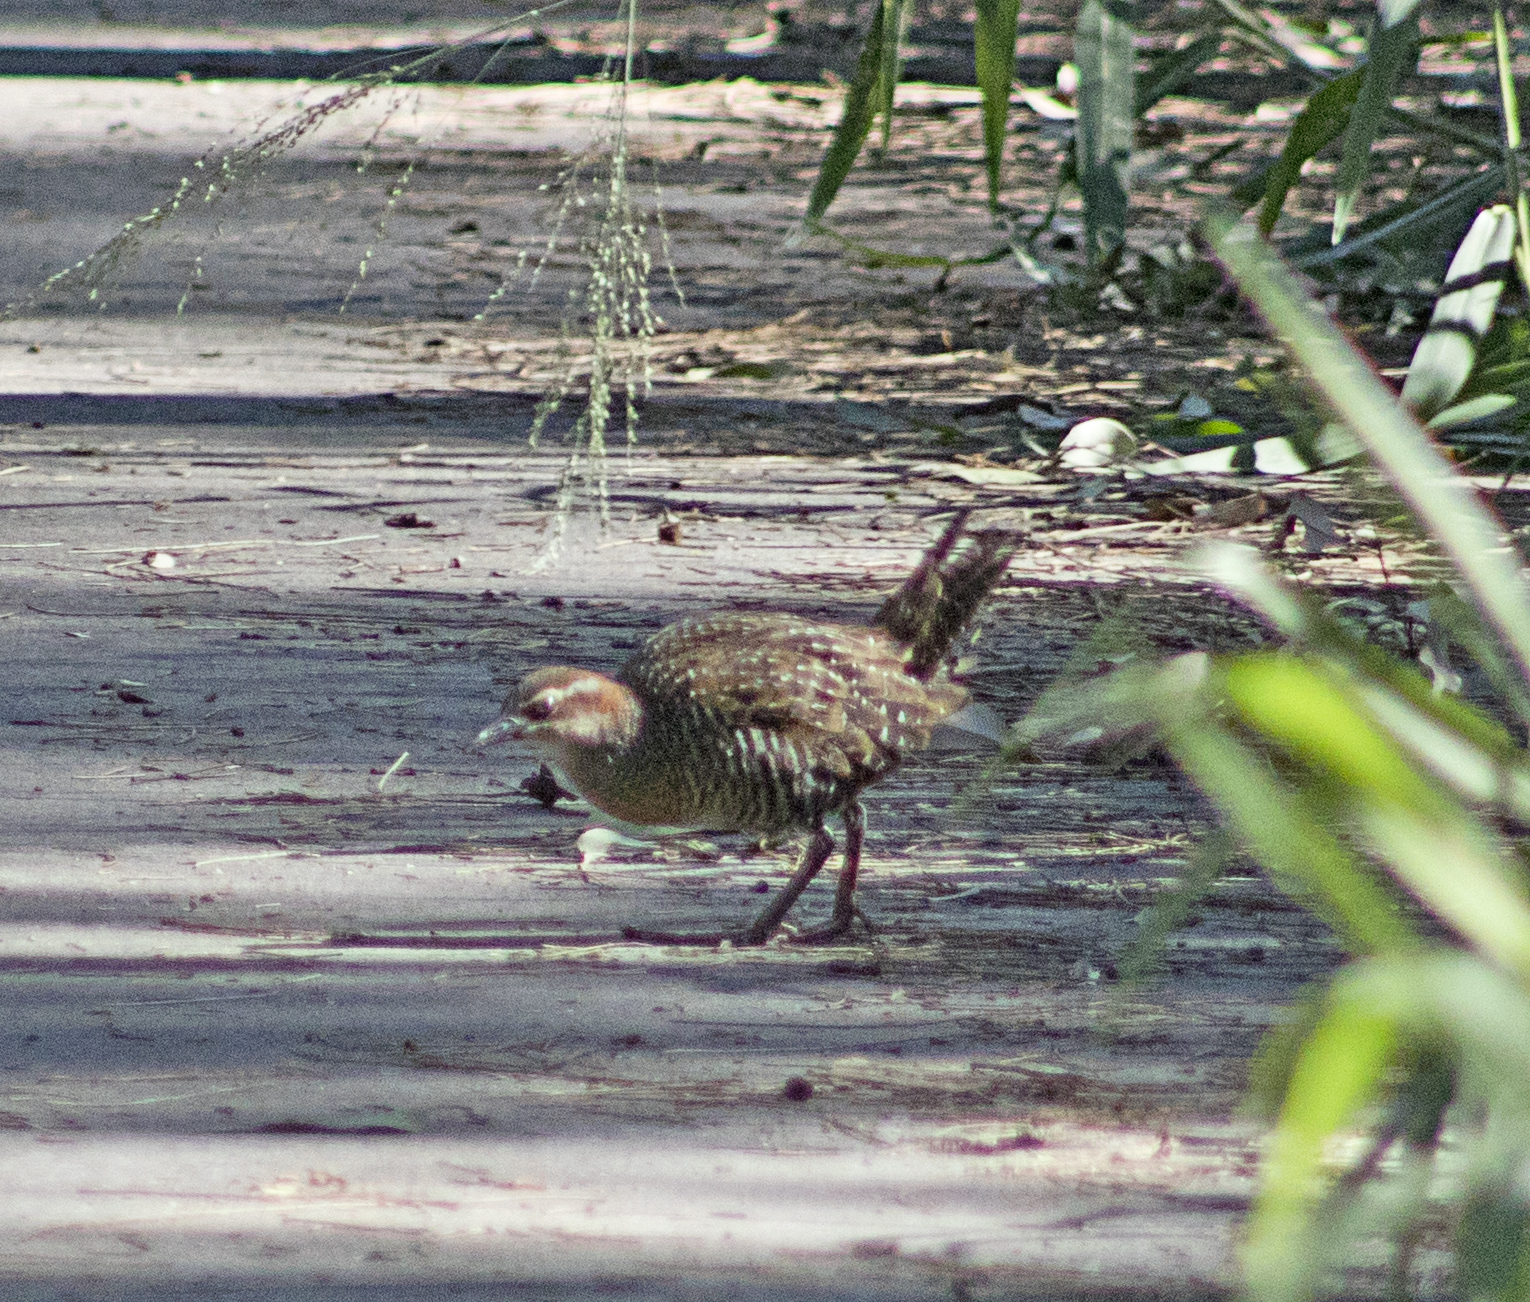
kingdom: Animalia
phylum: Chordata
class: Aves
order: Gruiformes
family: Rallidae
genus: Gallirallus
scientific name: Gallirallus philippensis
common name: Buff-banded rail
